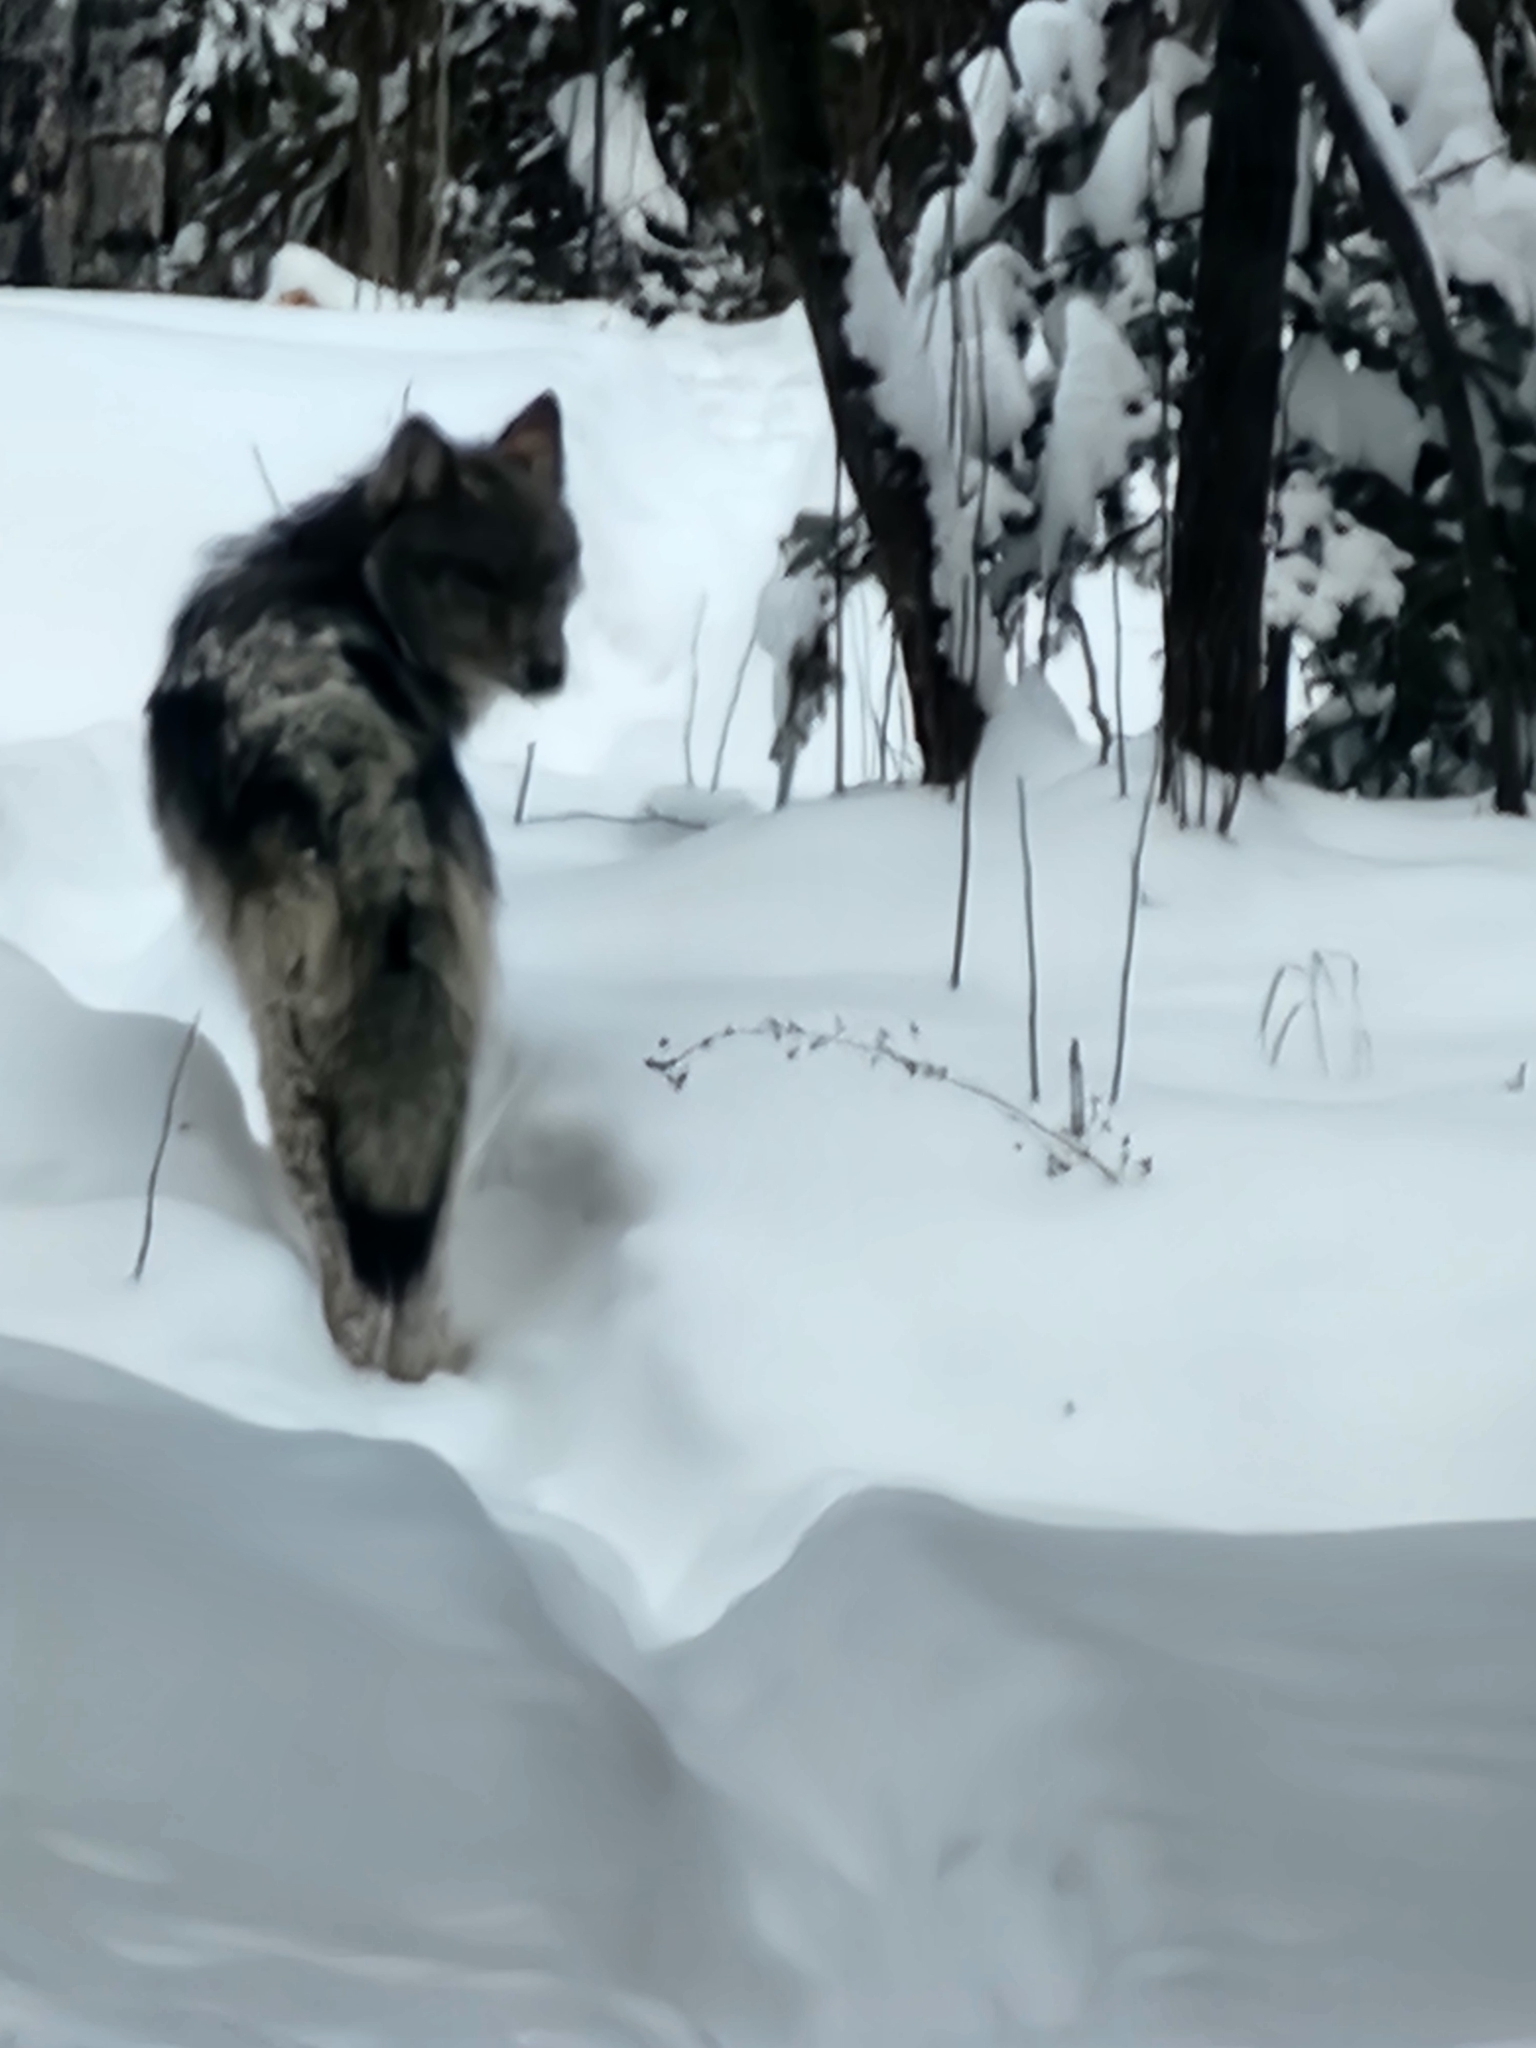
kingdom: Animalia
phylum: Chordata
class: Mammalia
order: Carnivora
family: Canidae
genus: Canis
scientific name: Canis lupus
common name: Gray wolf
